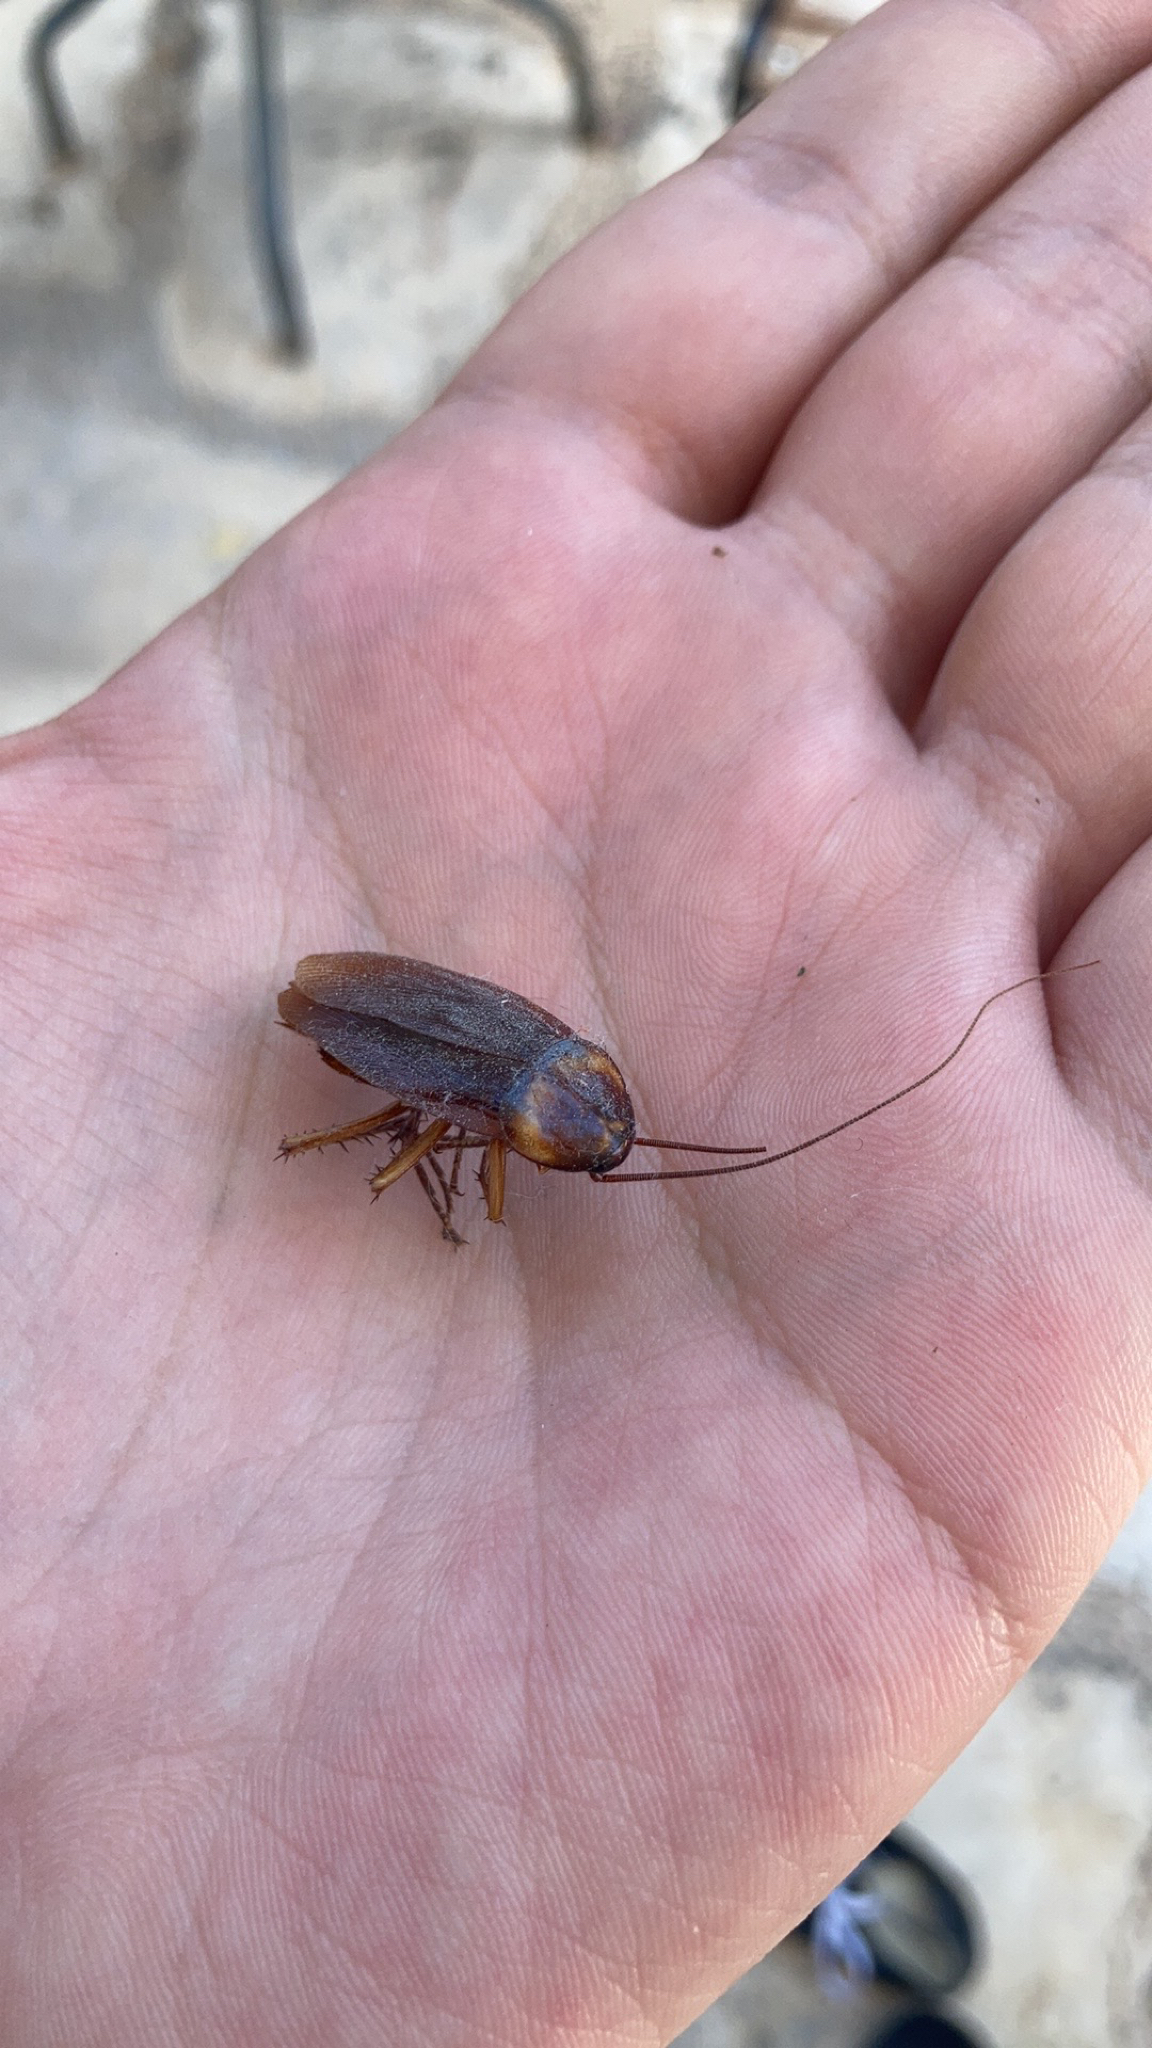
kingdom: Animalia
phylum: Arthropoda
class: Insecta
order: Blattodea
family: Blattidae
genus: Periplaneta
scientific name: Periplaneta americana
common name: American cockroach
